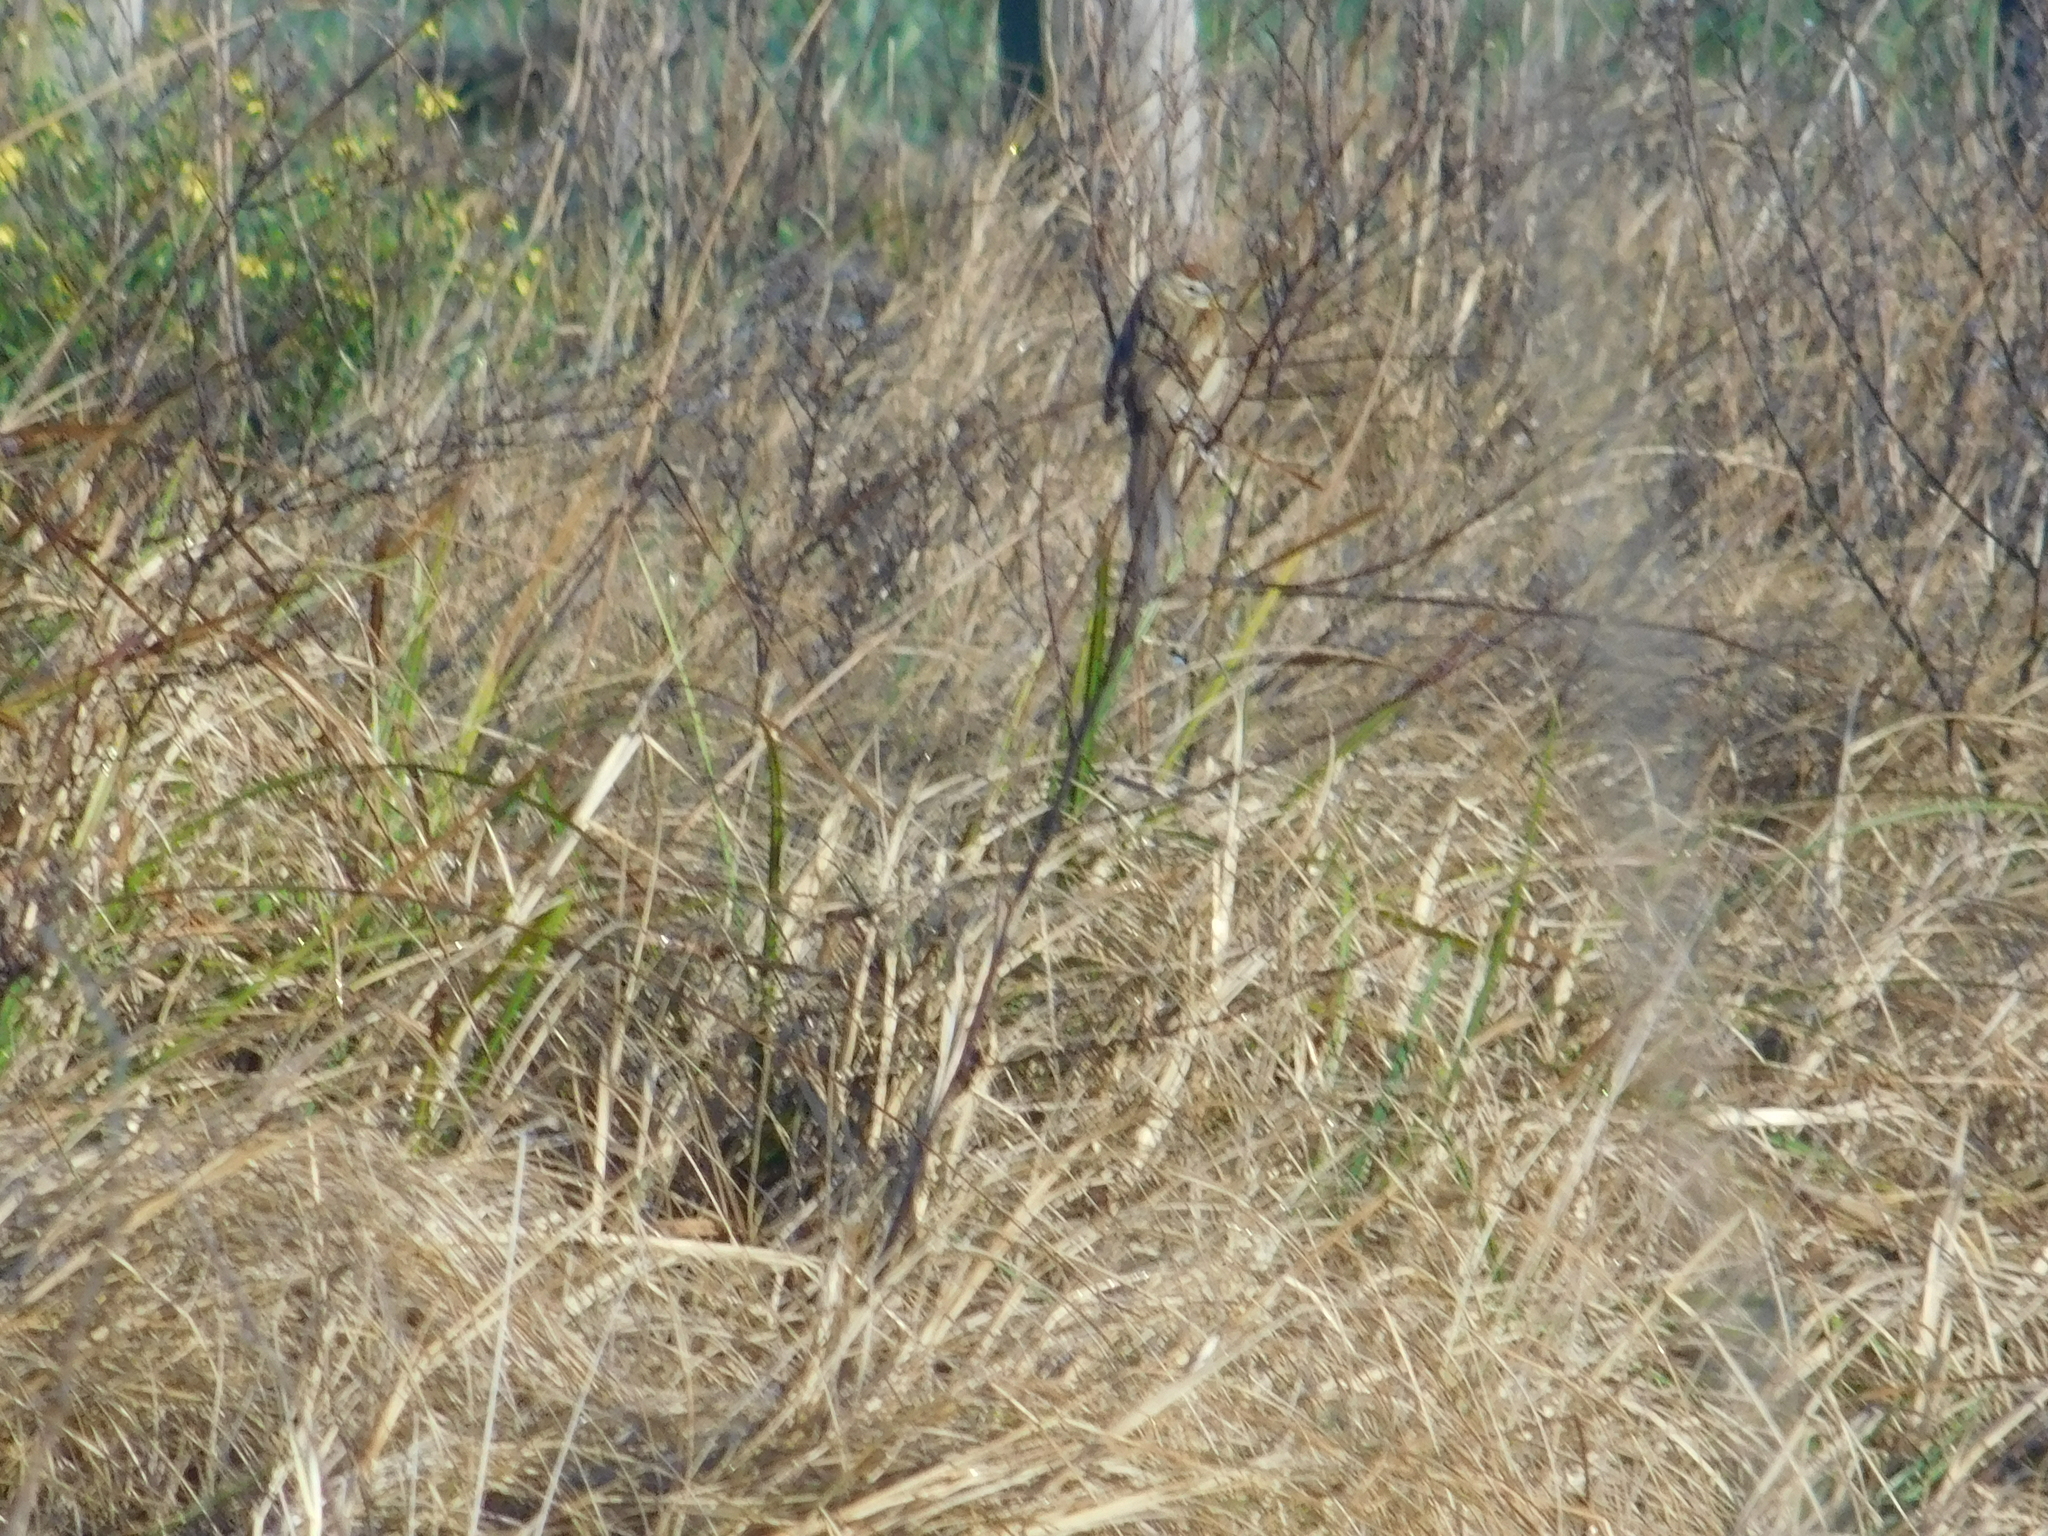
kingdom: Animalia
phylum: Chordata
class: Aves
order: Passeriformes
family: Furnariidae
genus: Schoeniophylax
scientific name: Schoeniophylax phryganophilus
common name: Chotoy spinetail
